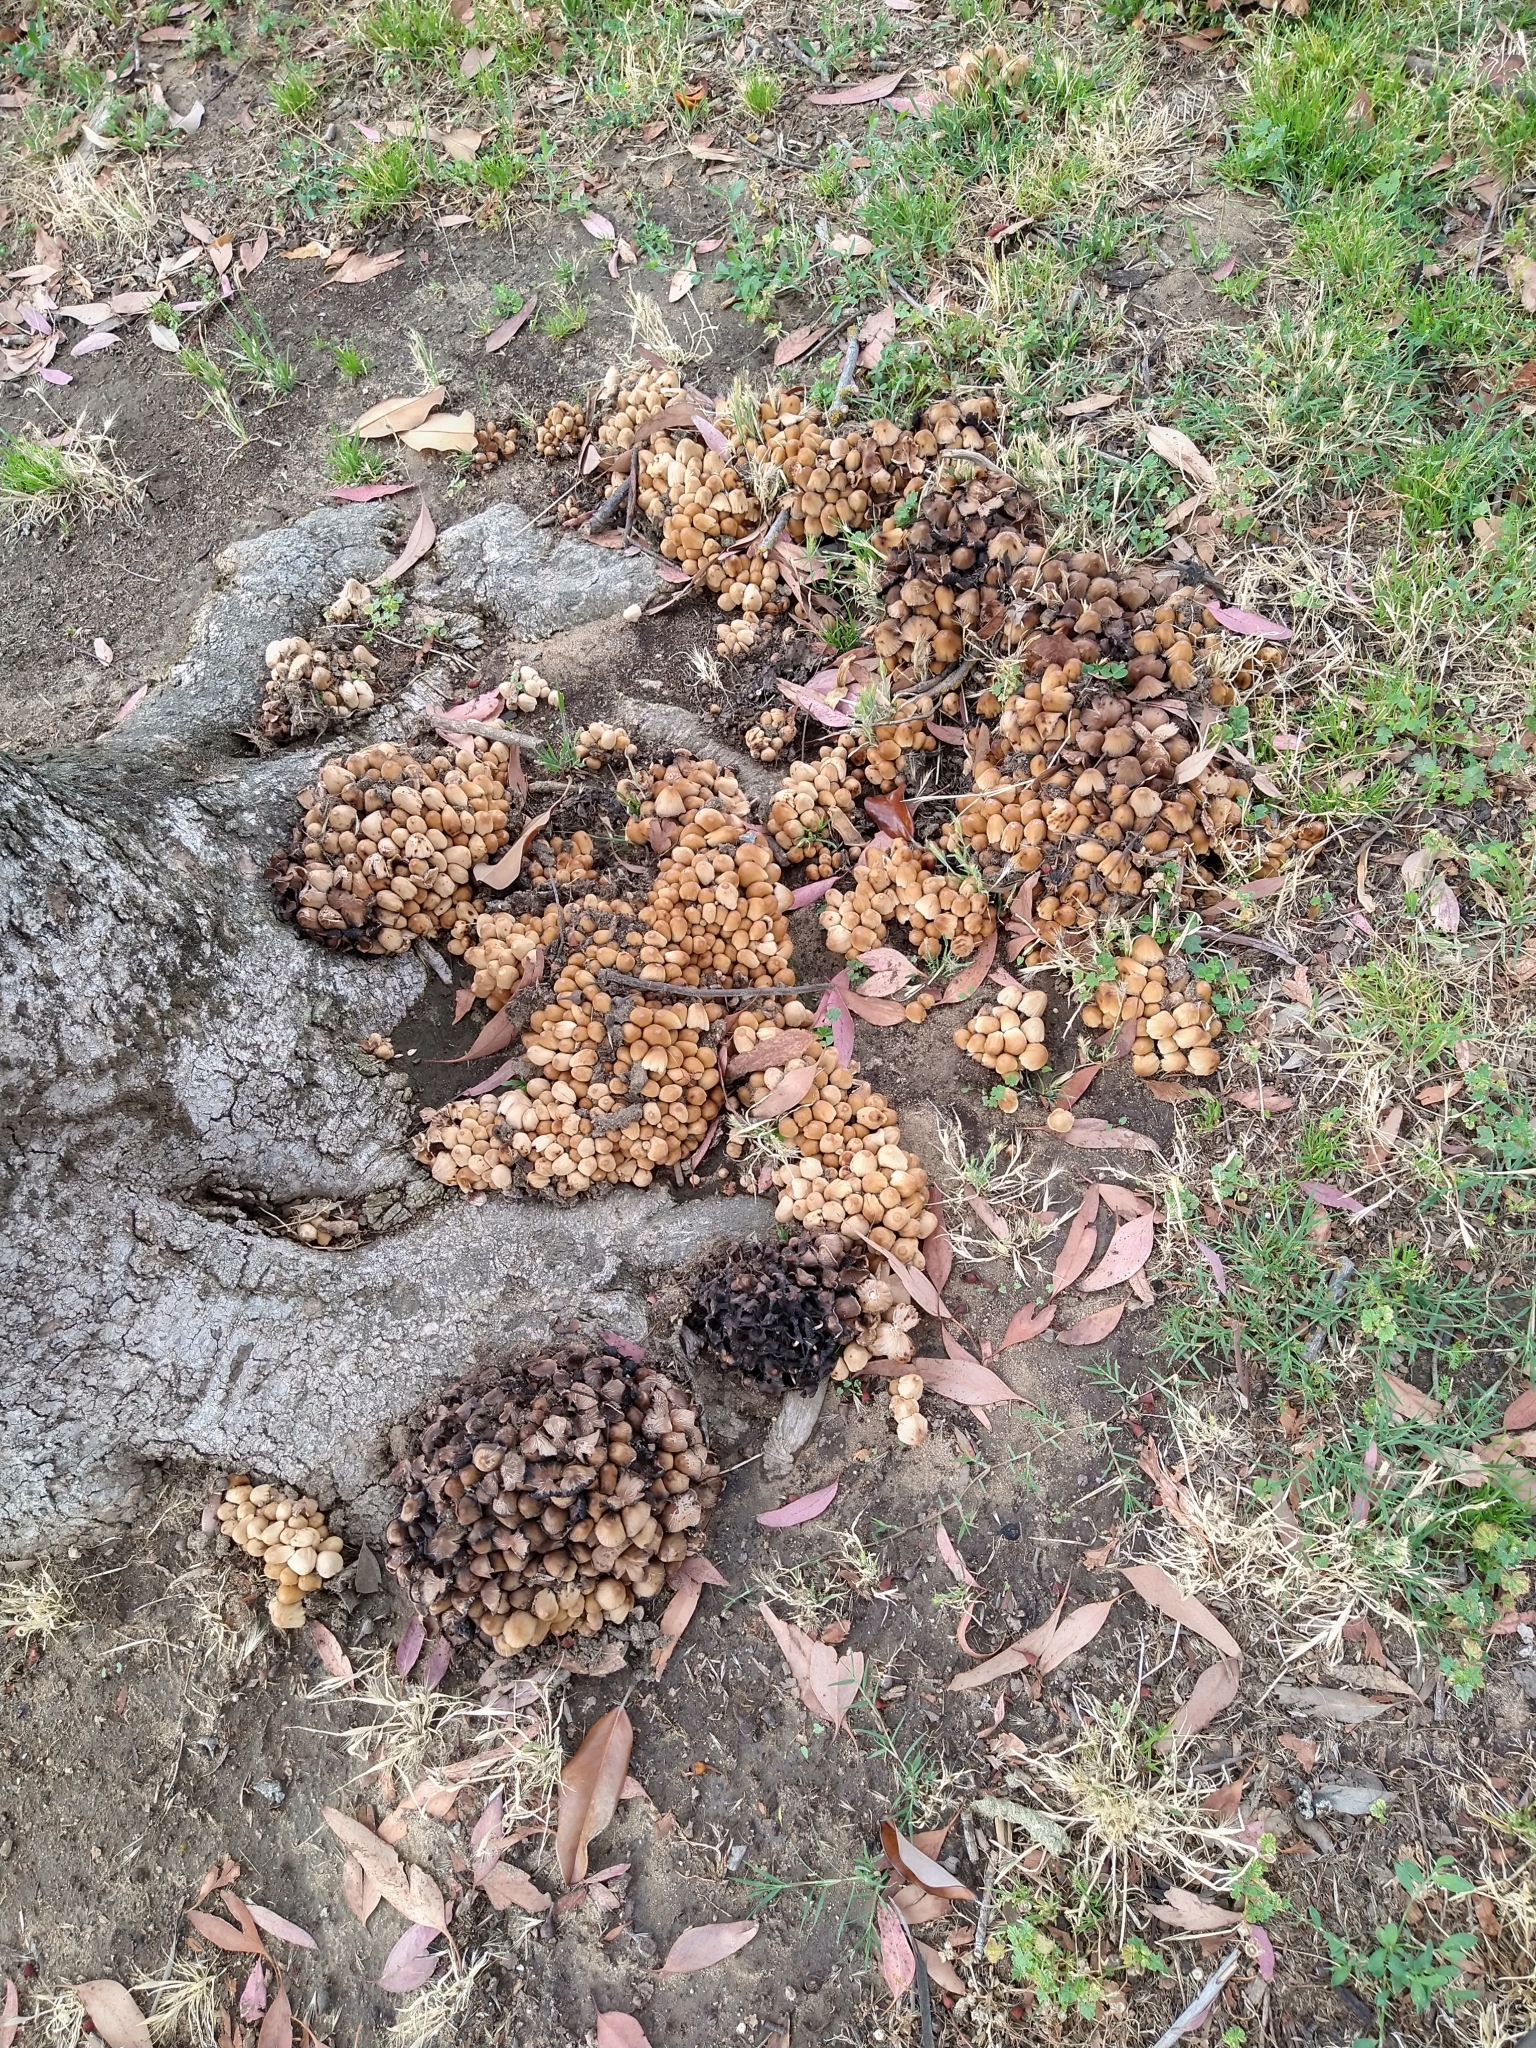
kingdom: Fungi
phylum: Basidiomycota
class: Agaricomycetes
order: Agaricales
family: Psathyrellaceae
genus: Coprinellus
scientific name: Coprinellus micaceus
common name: Glistening ink-cap
